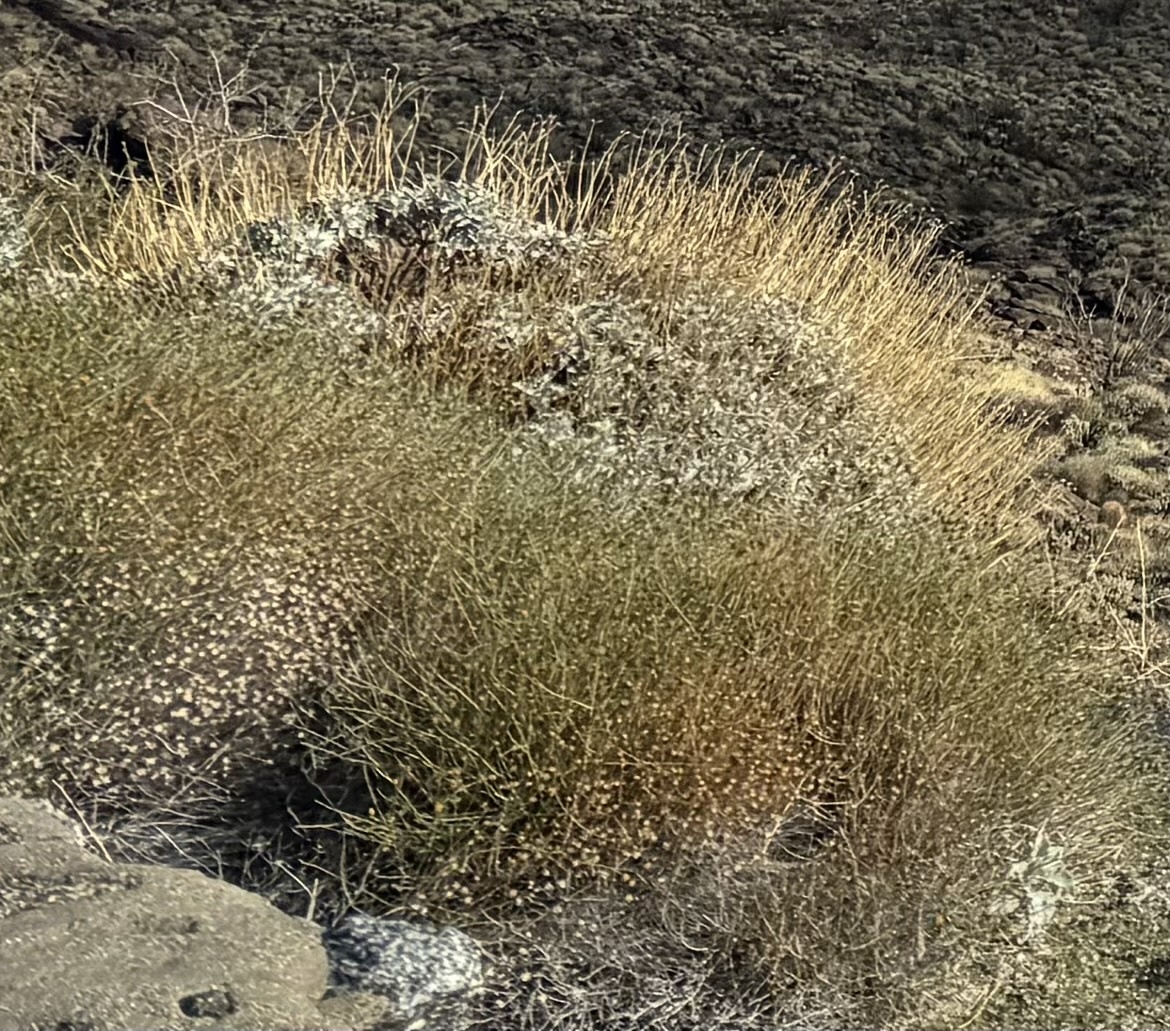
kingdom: Plantae
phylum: Tracheophyta
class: Magnoliopsida
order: Asterales
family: Asteraceae
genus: Bebbia
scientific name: Bebbia juncea
